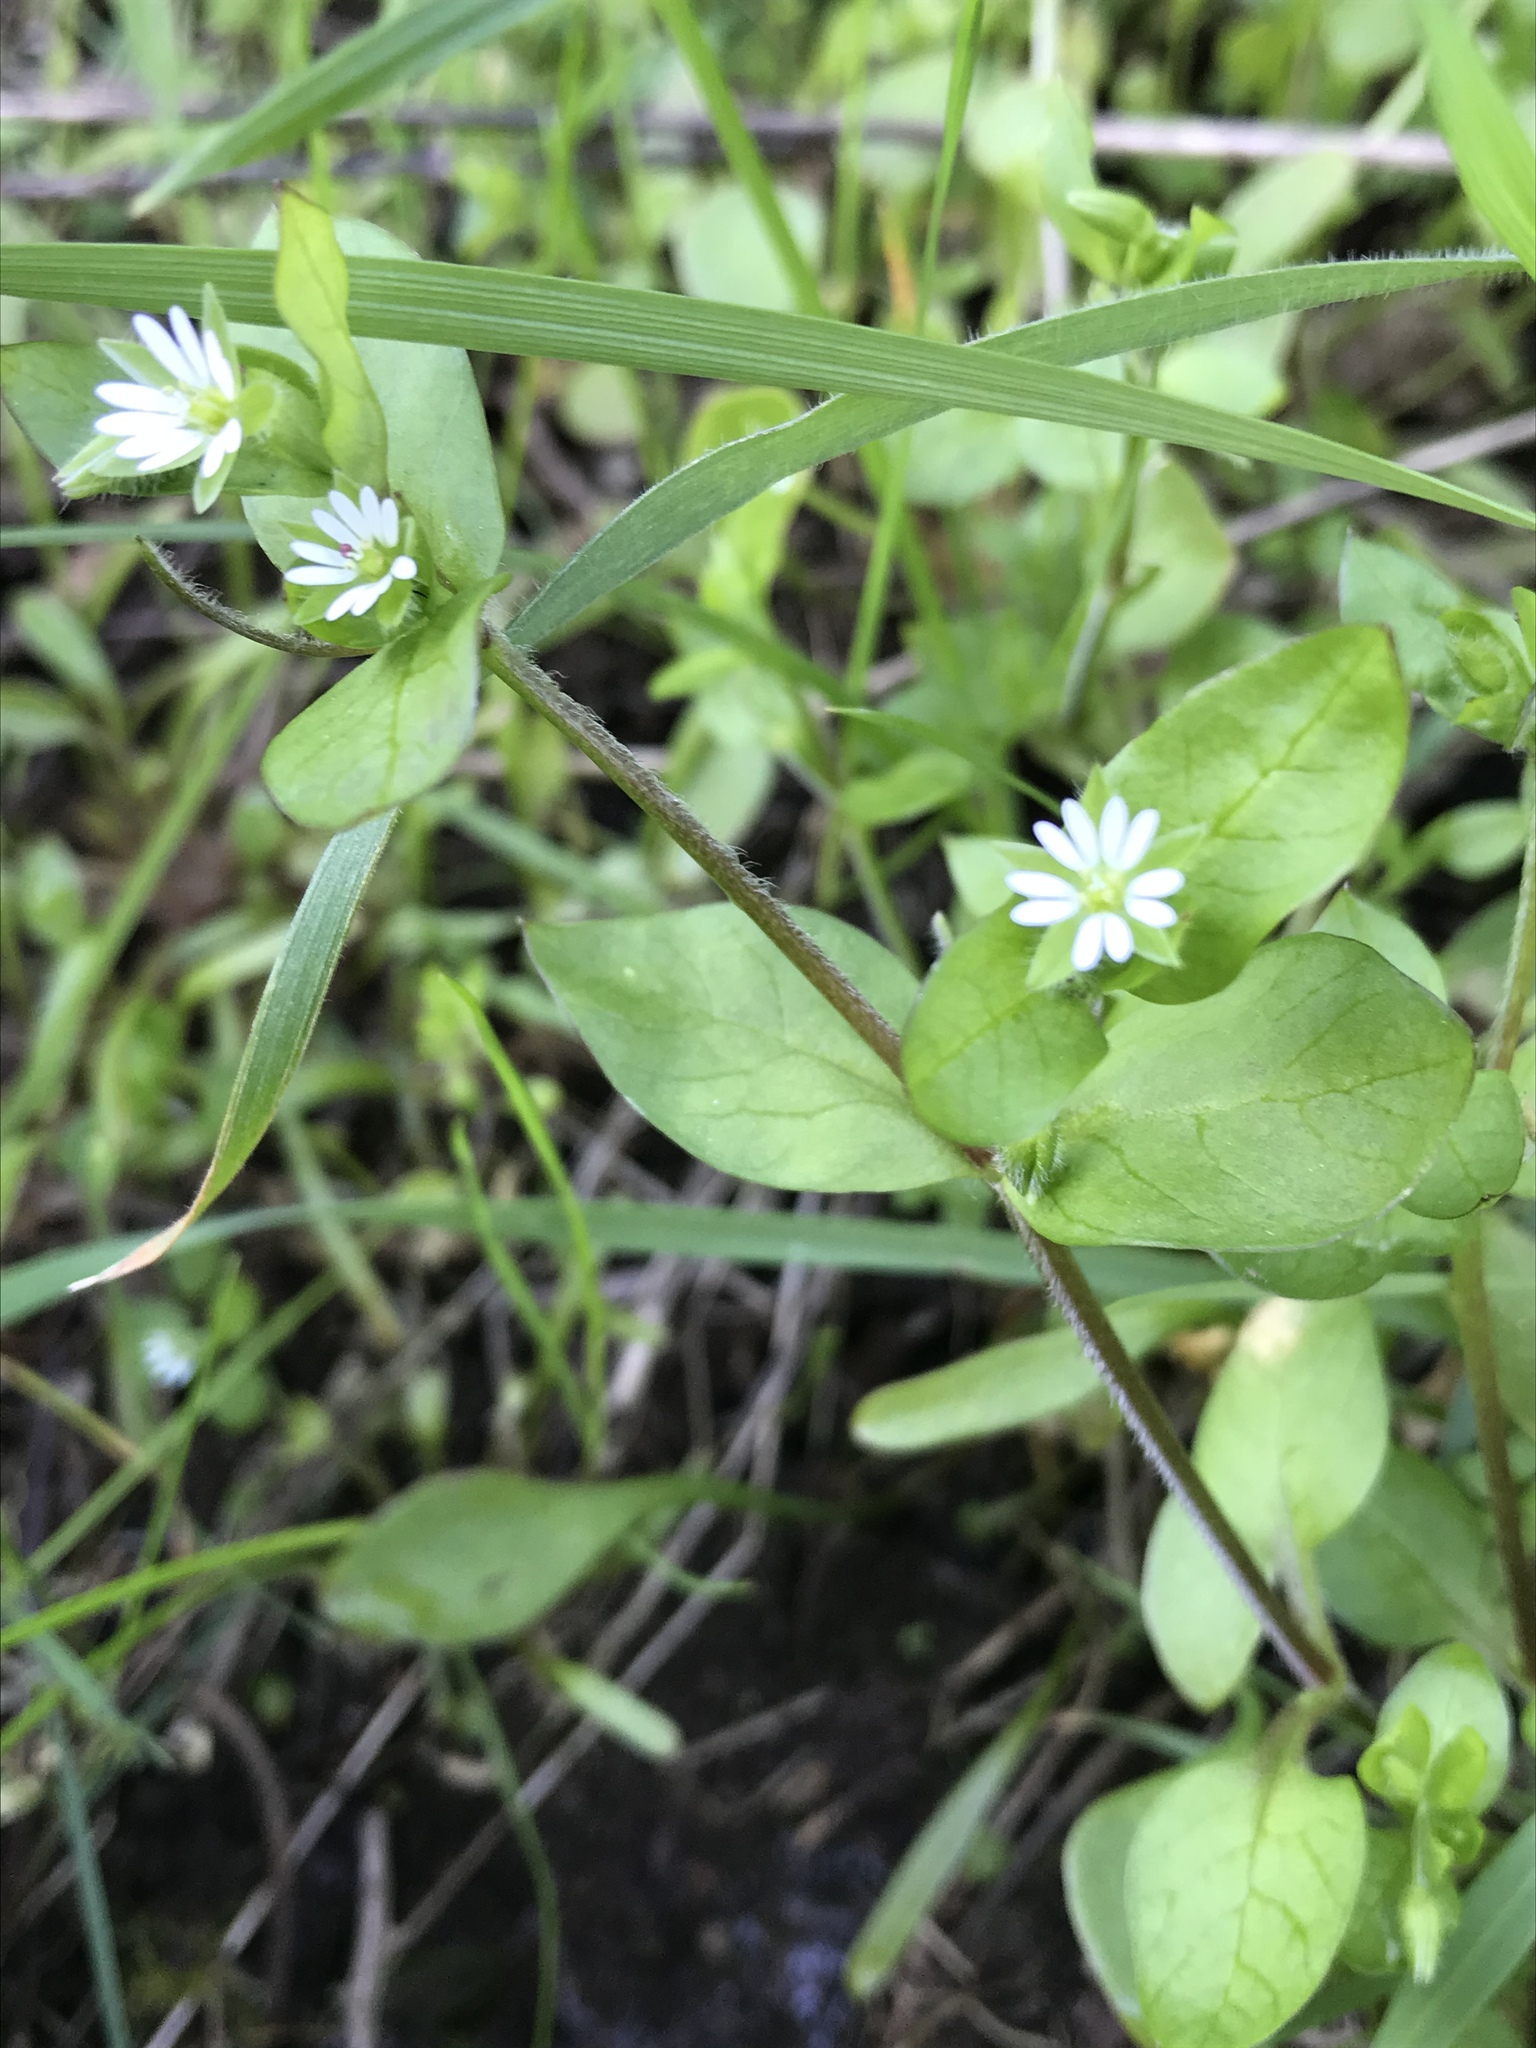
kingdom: Plantae
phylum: Tracheophyta
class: Magnoliopsida
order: Caryophyllales
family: Caryophyllaceae
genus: Stellaria
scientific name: Stellaria media
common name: Common chickweed
